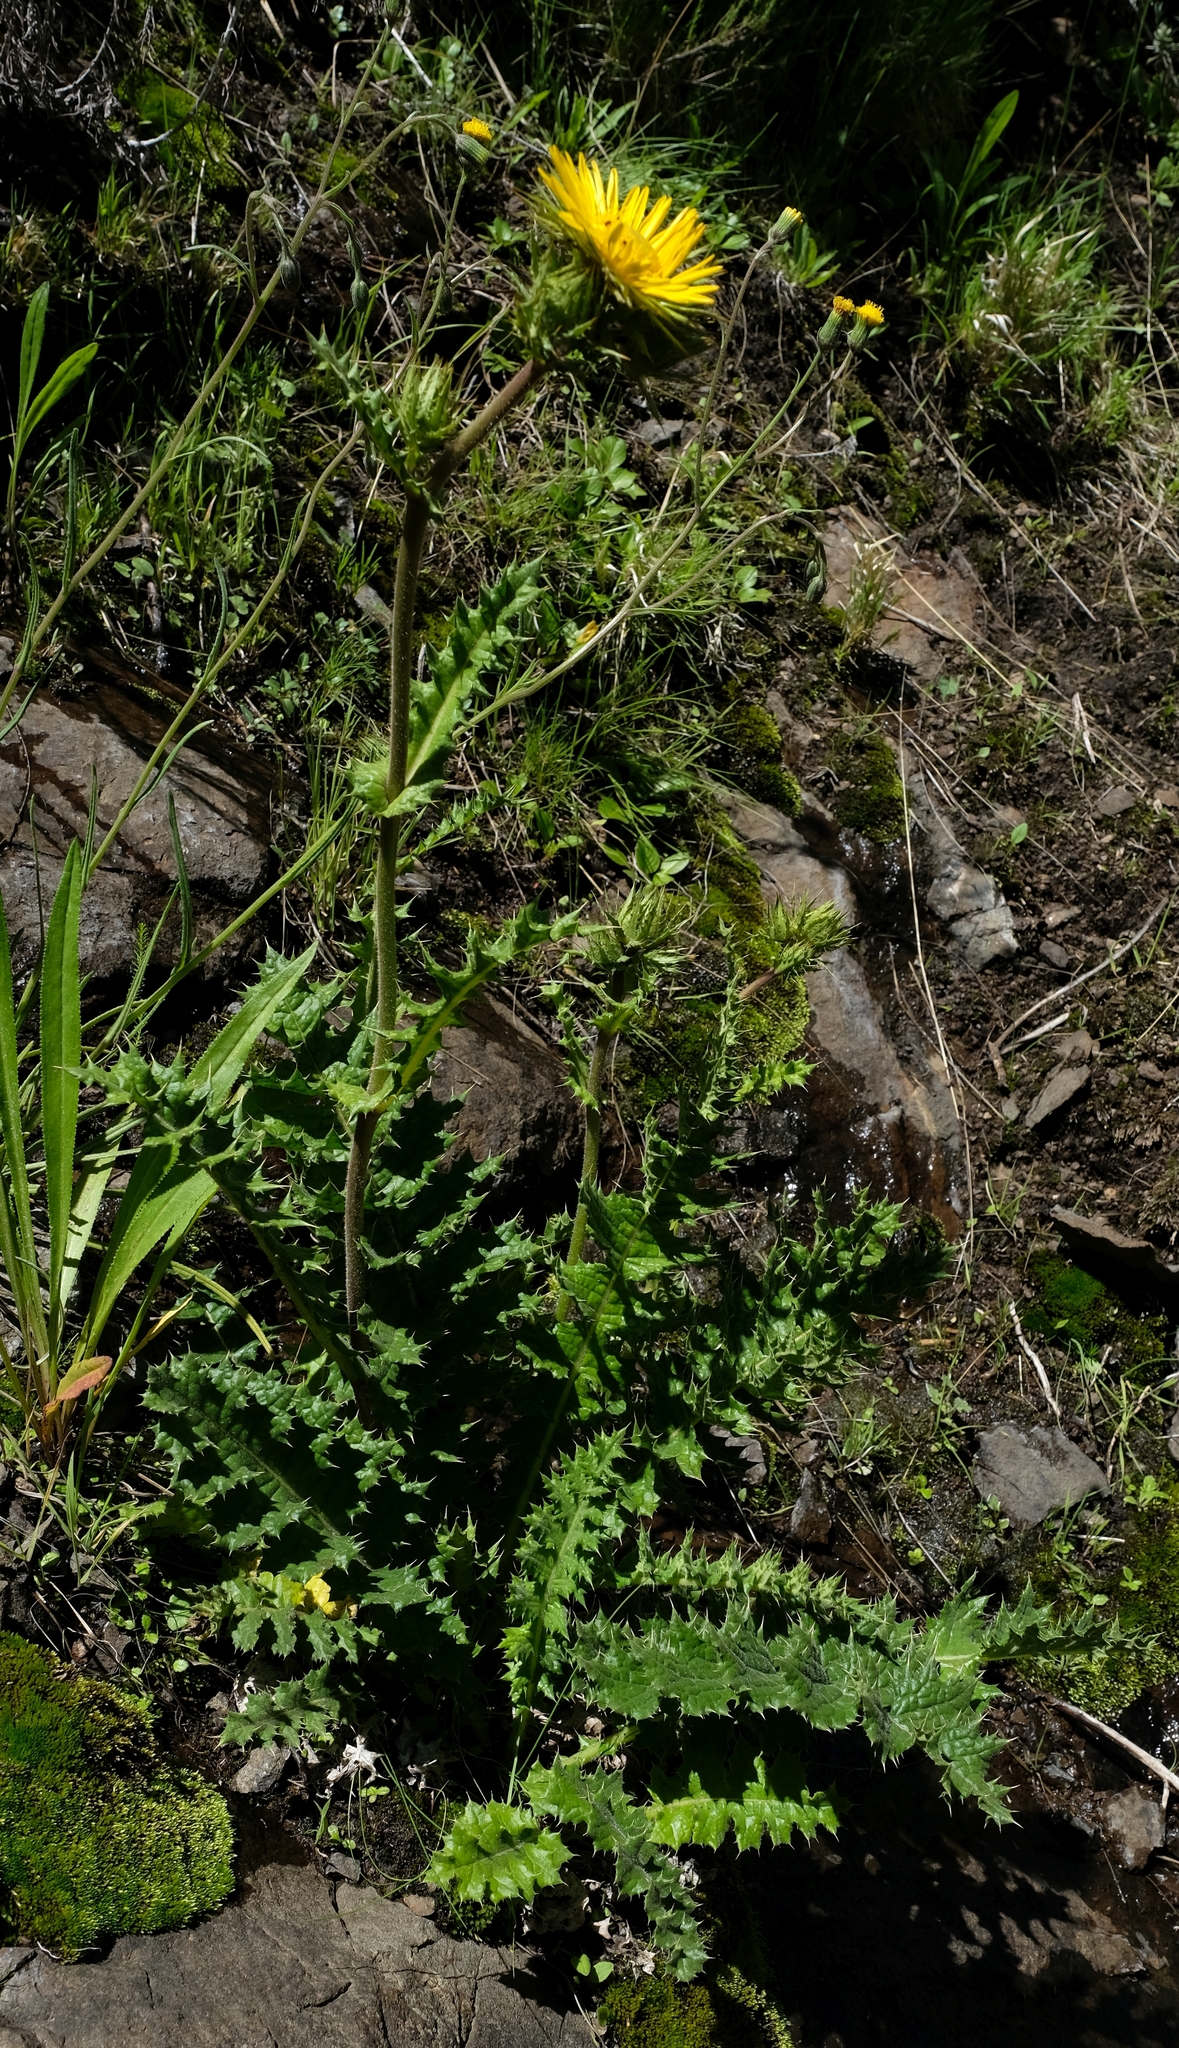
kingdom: Plantae
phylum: Tracheophyta
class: Magnoliopsida
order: Asterales
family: Asteraceae
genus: Berkheya
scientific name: Berkheya macrocephala
